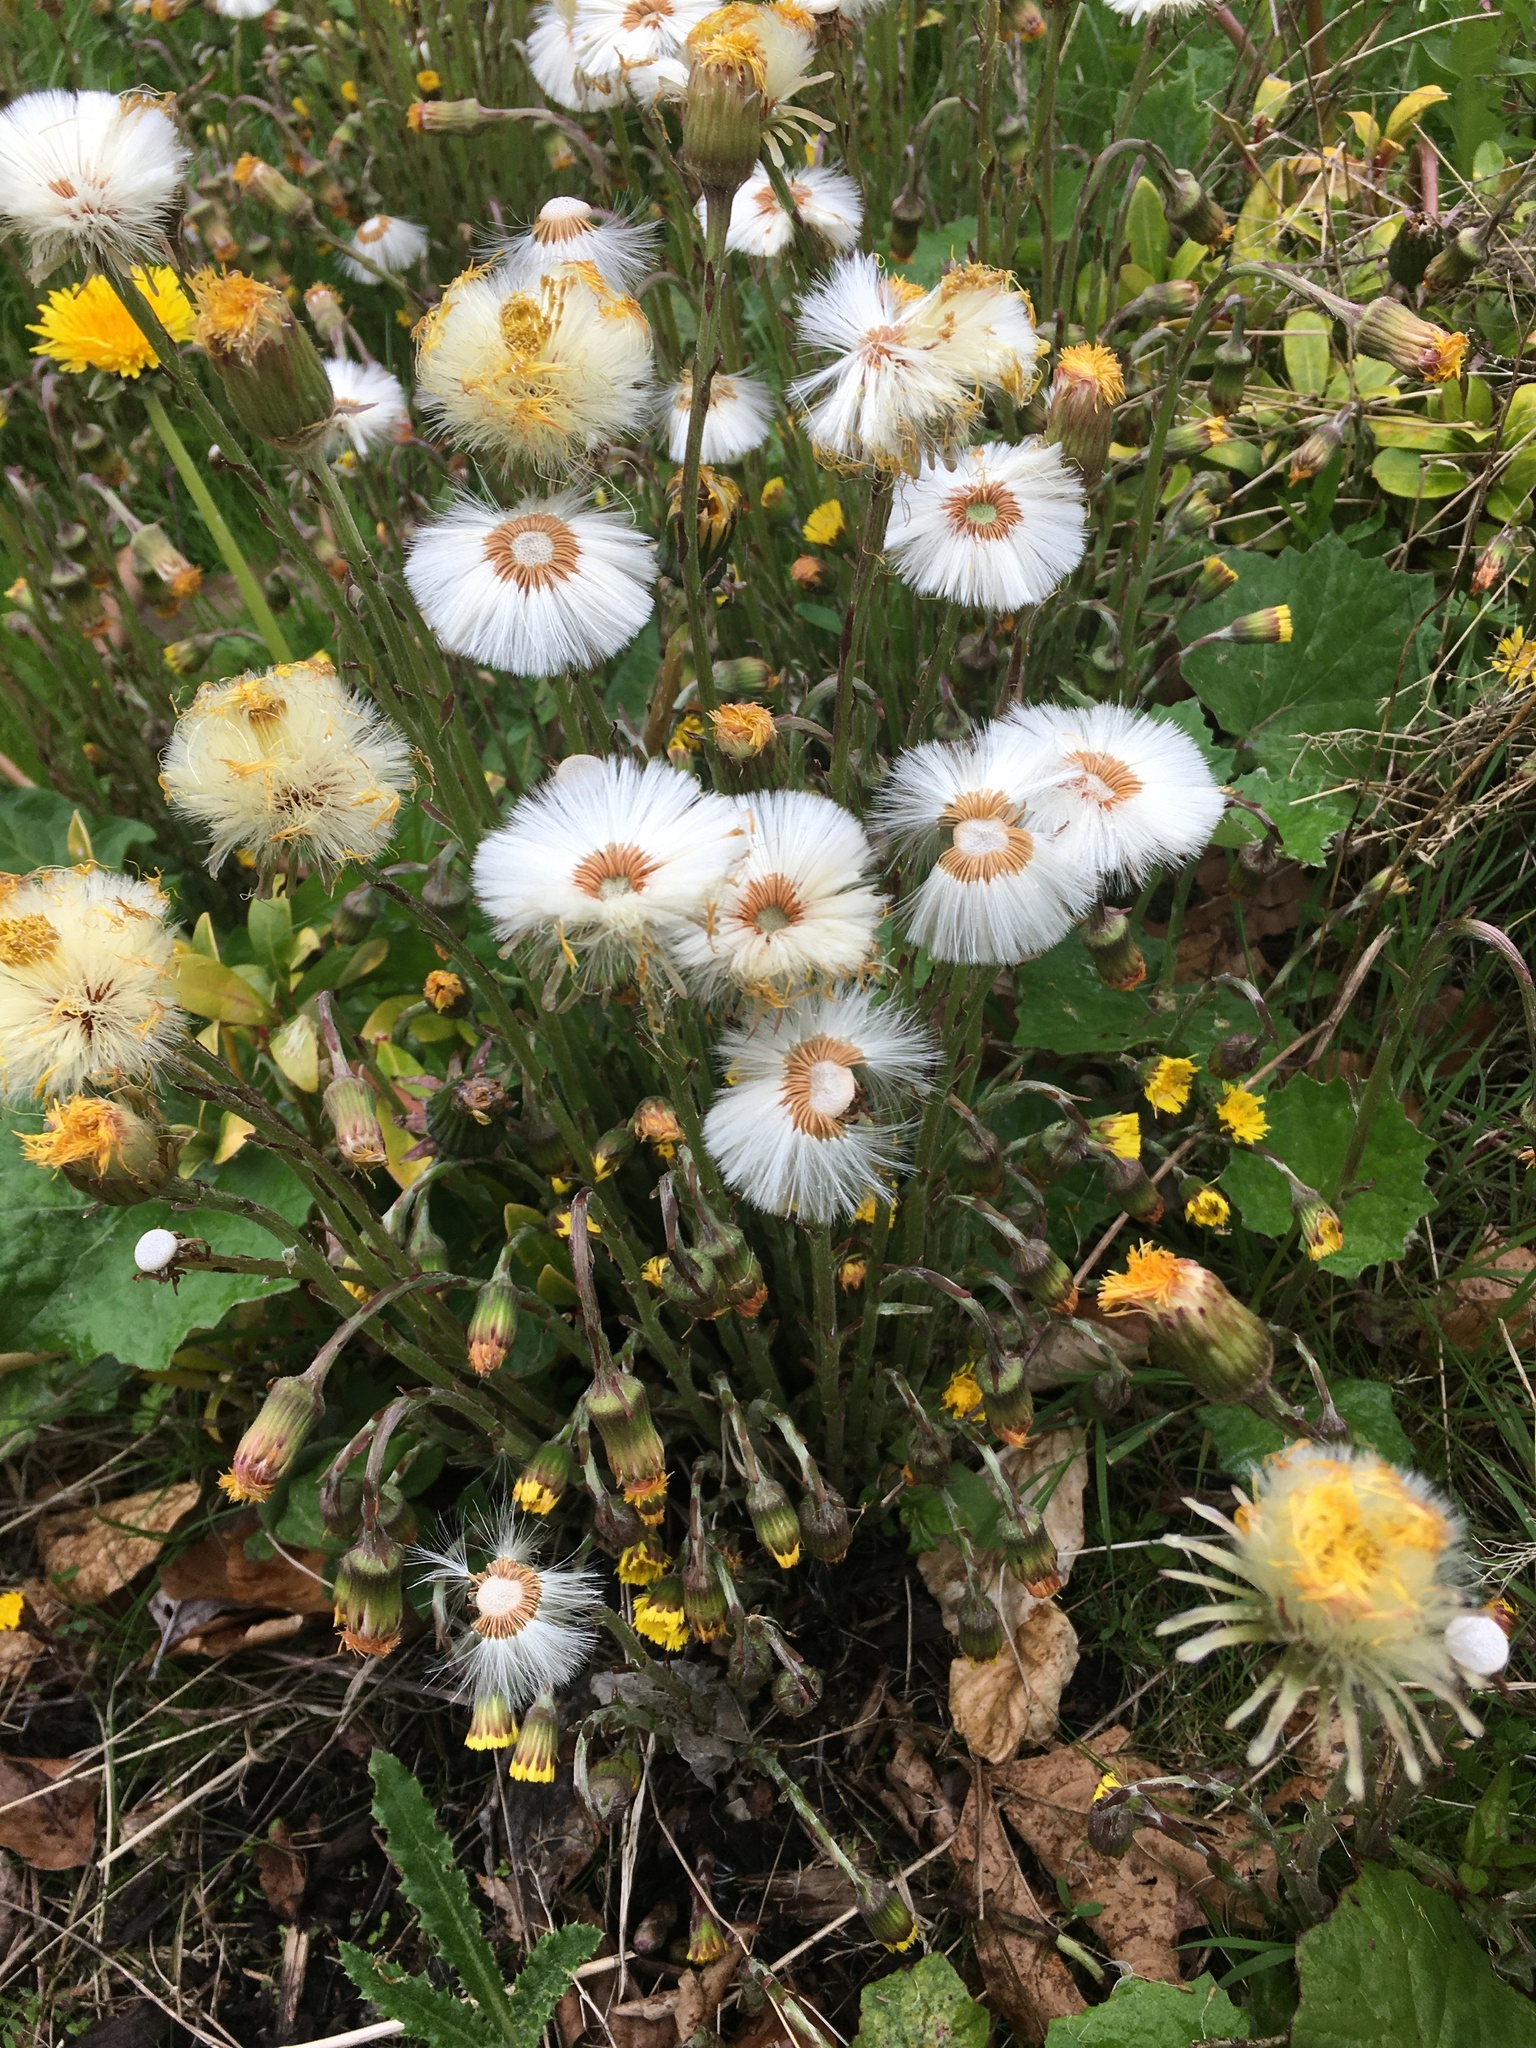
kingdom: Plantae
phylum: Tracheophyta
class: Magnoliopsida
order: Asterales
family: Asteraceae
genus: Tussilago
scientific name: Tussilago farfara
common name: Coltsfoot
